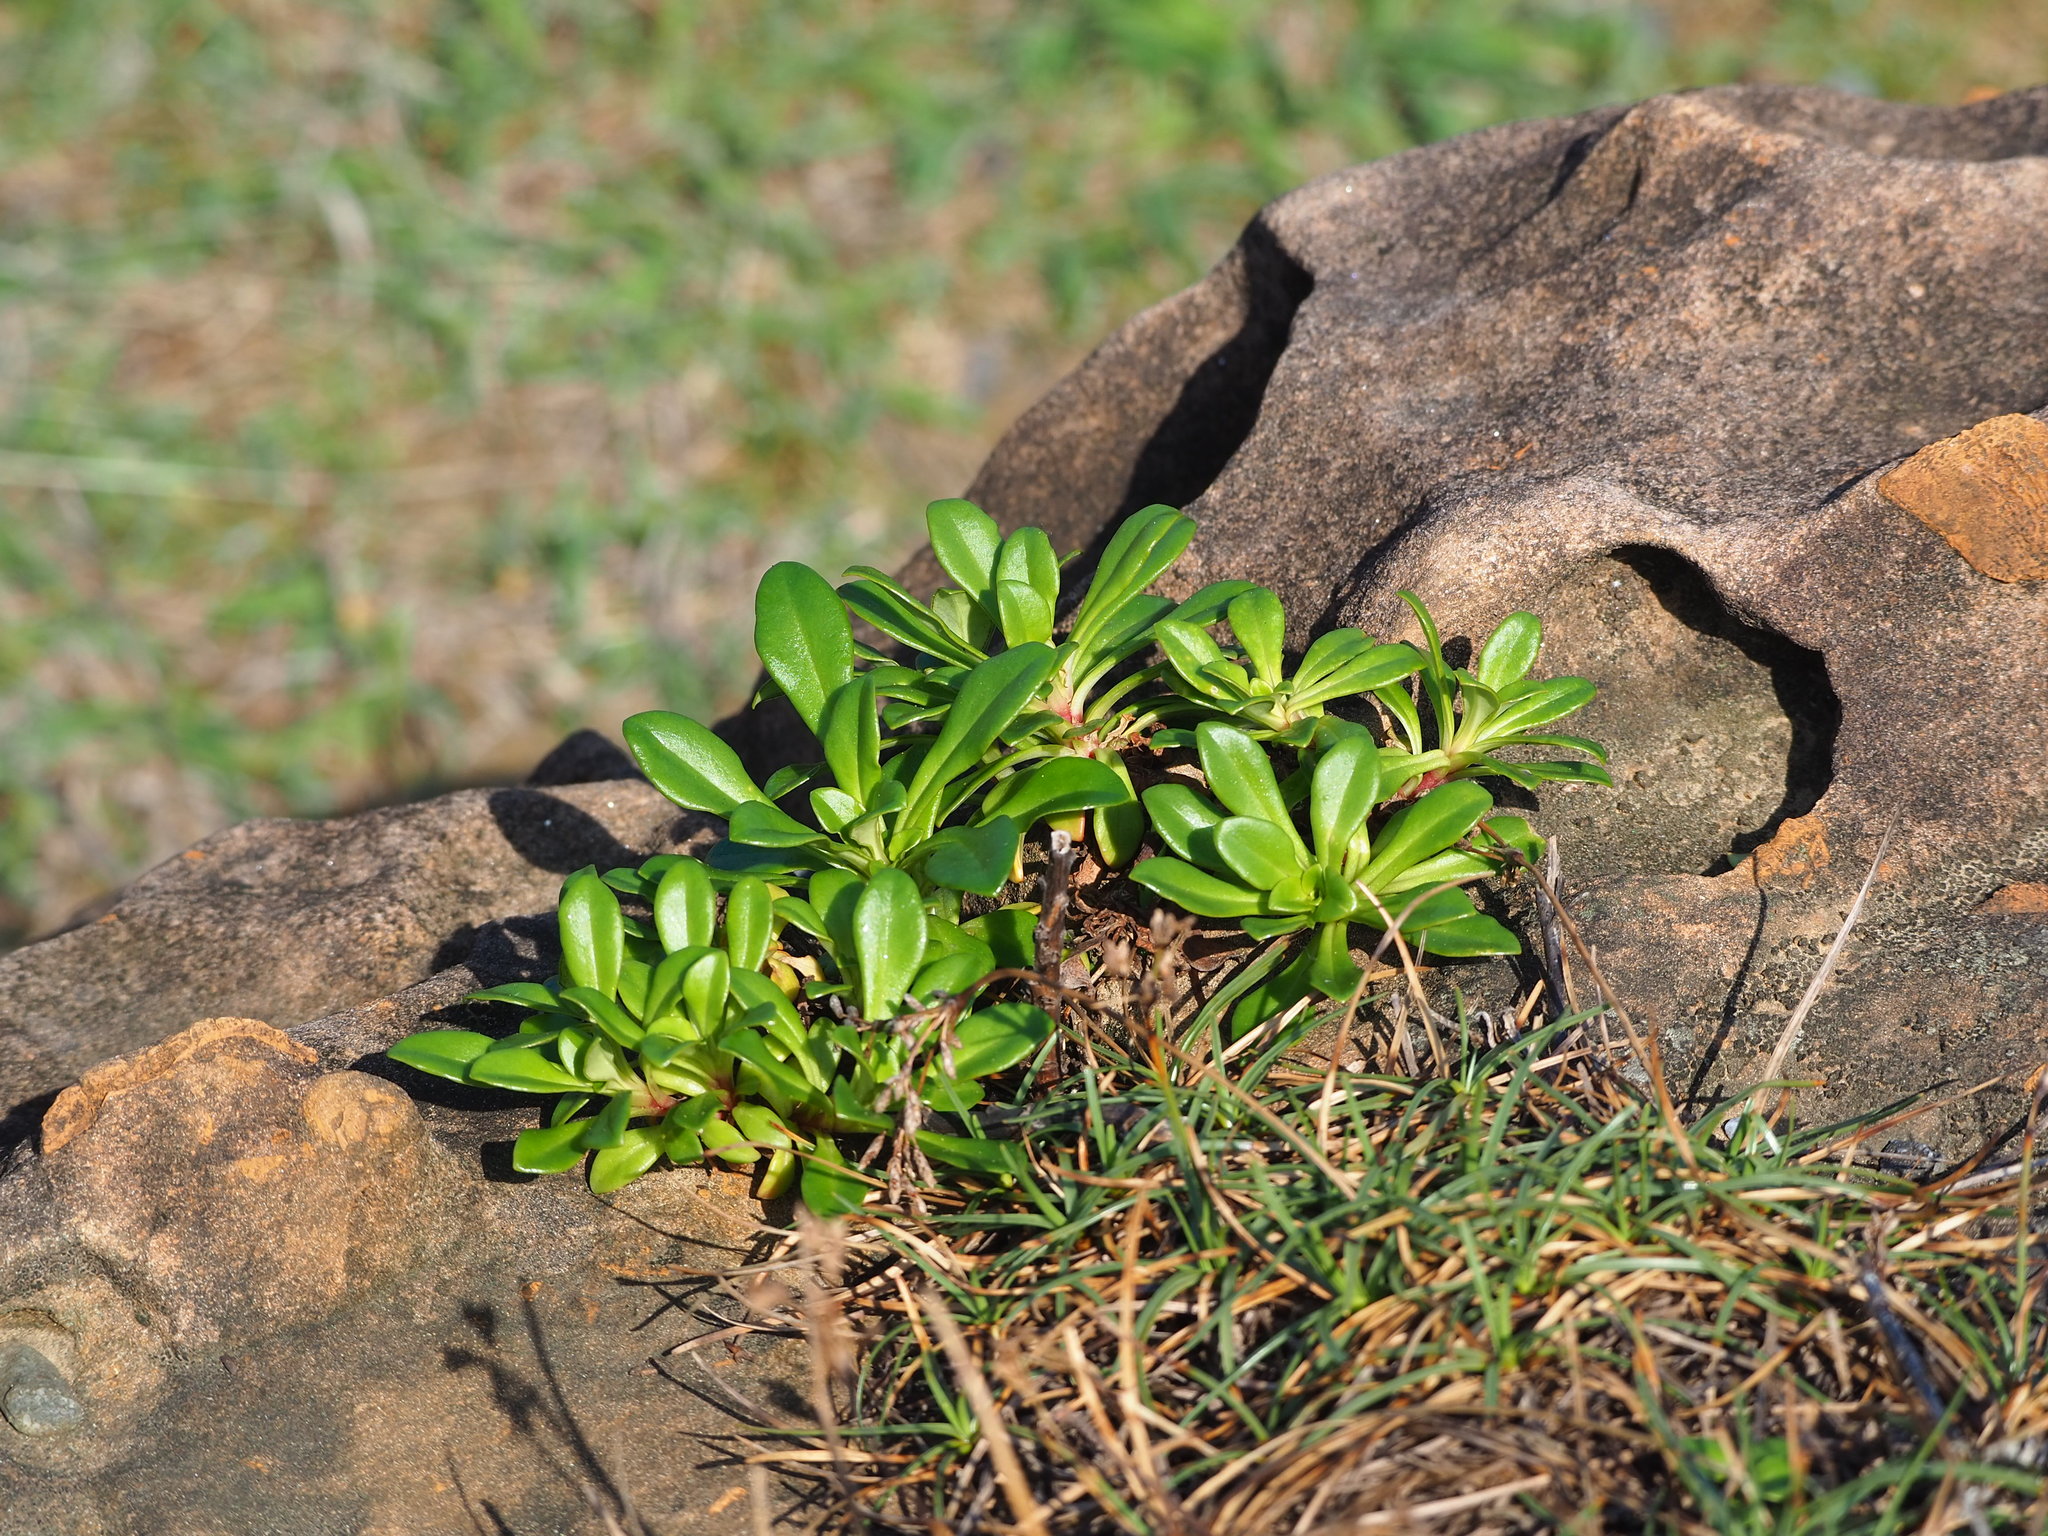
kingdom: Plantae
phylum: Tracheophyta
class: Magnoliopsida
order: Ericales
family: Primulaceae
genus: Lysimachia
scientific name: Lysimachia mauritiana
